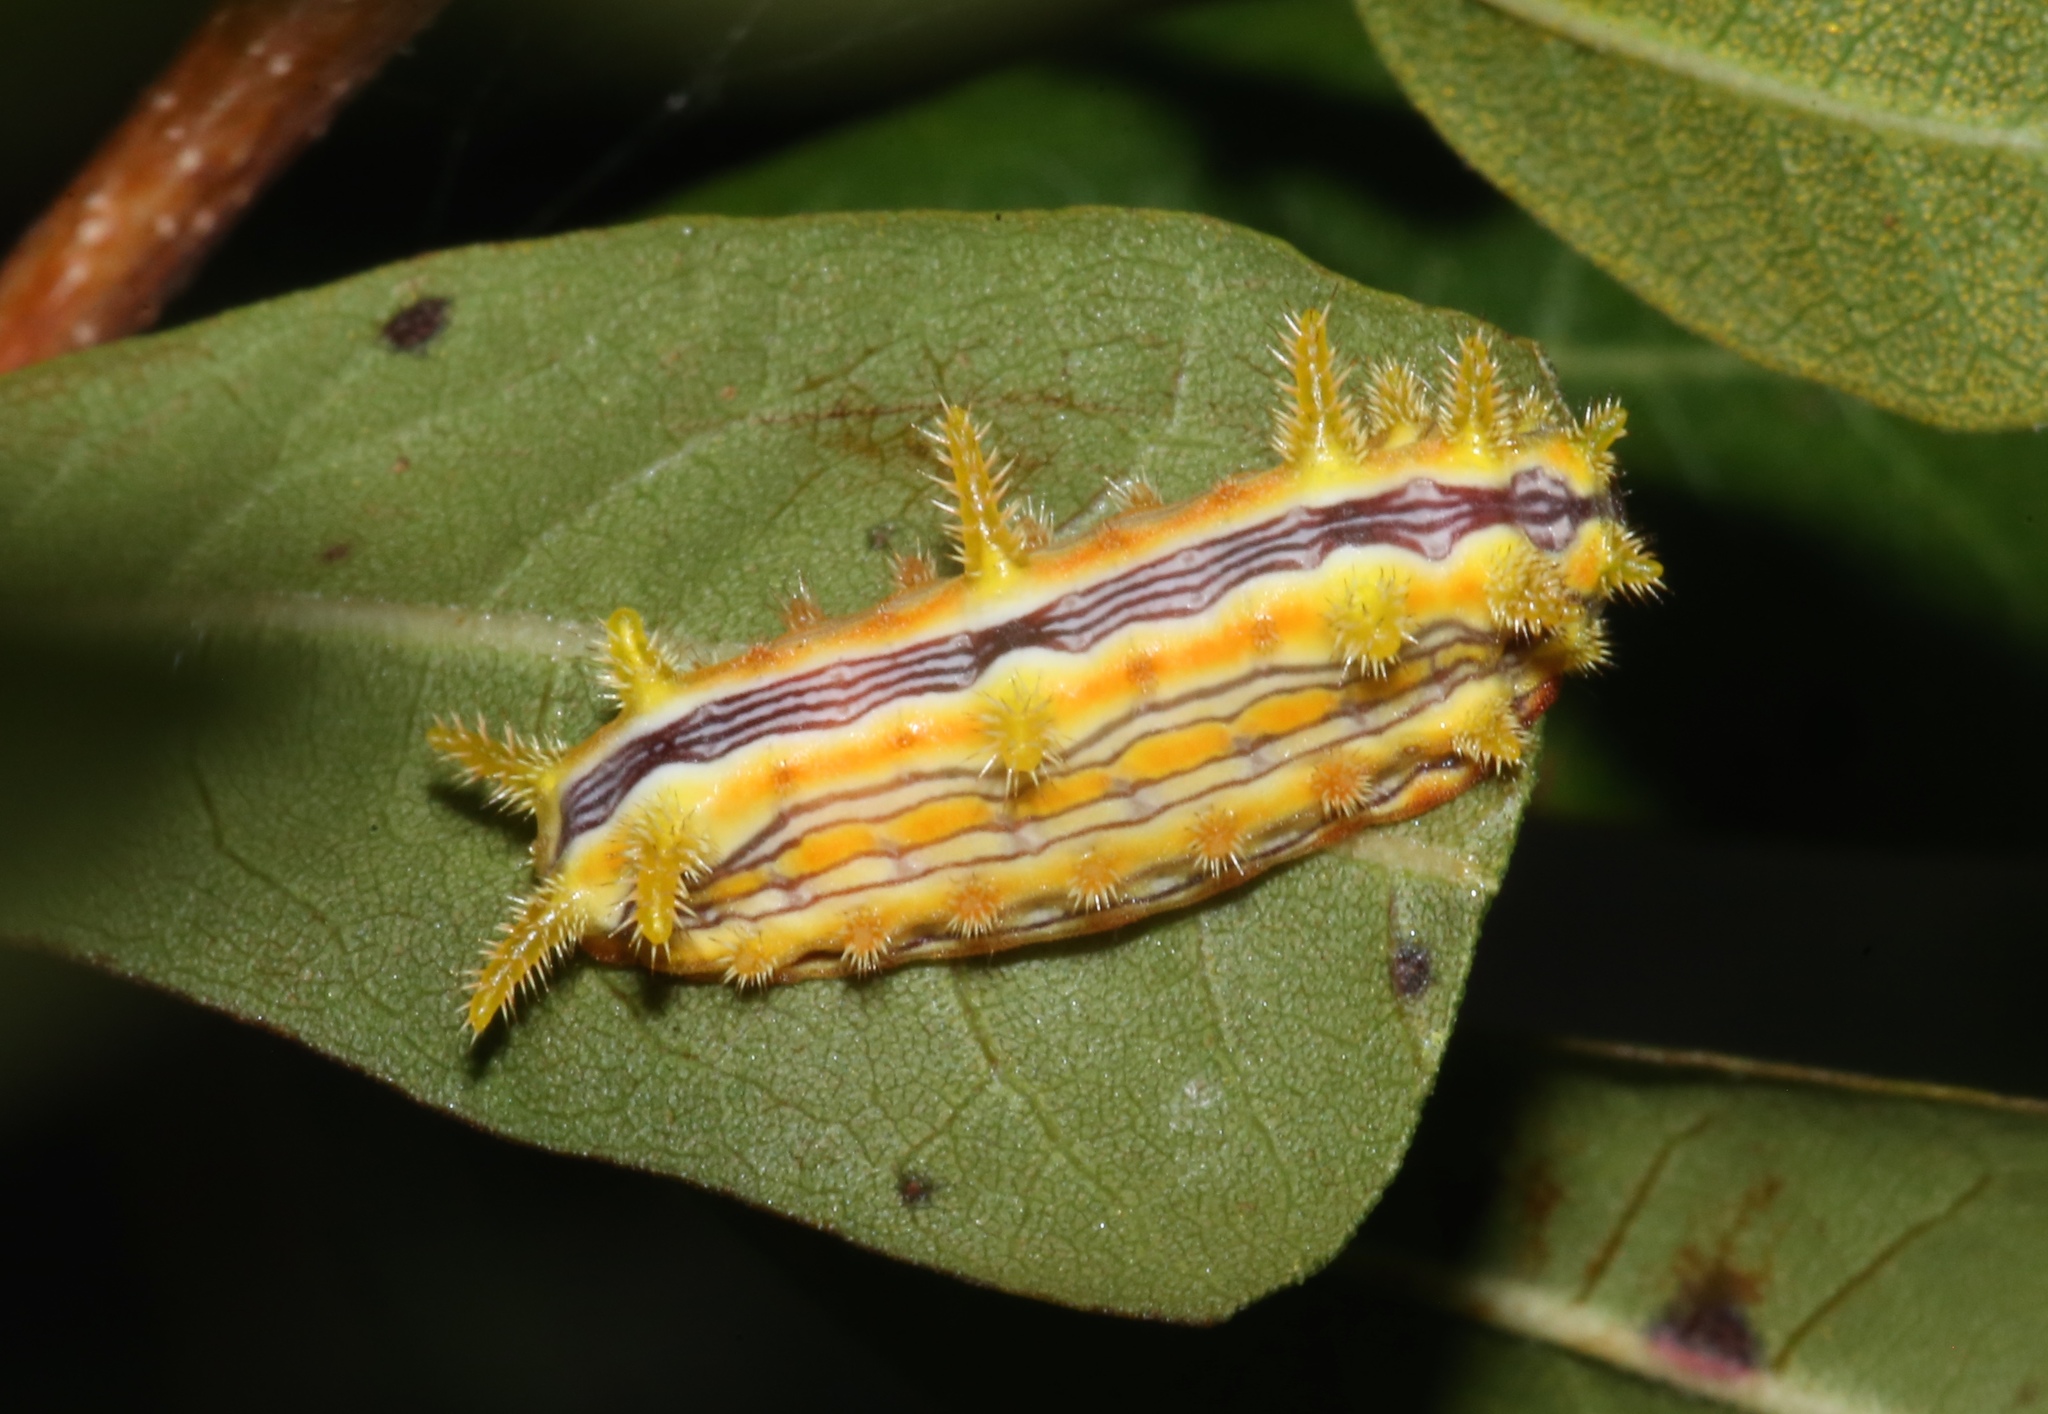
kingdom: Animalia
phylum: Arthropoda
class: Insecta
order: Lepidoptera
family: Limacodidae
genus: Parasa
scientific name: Parasa indetermina
